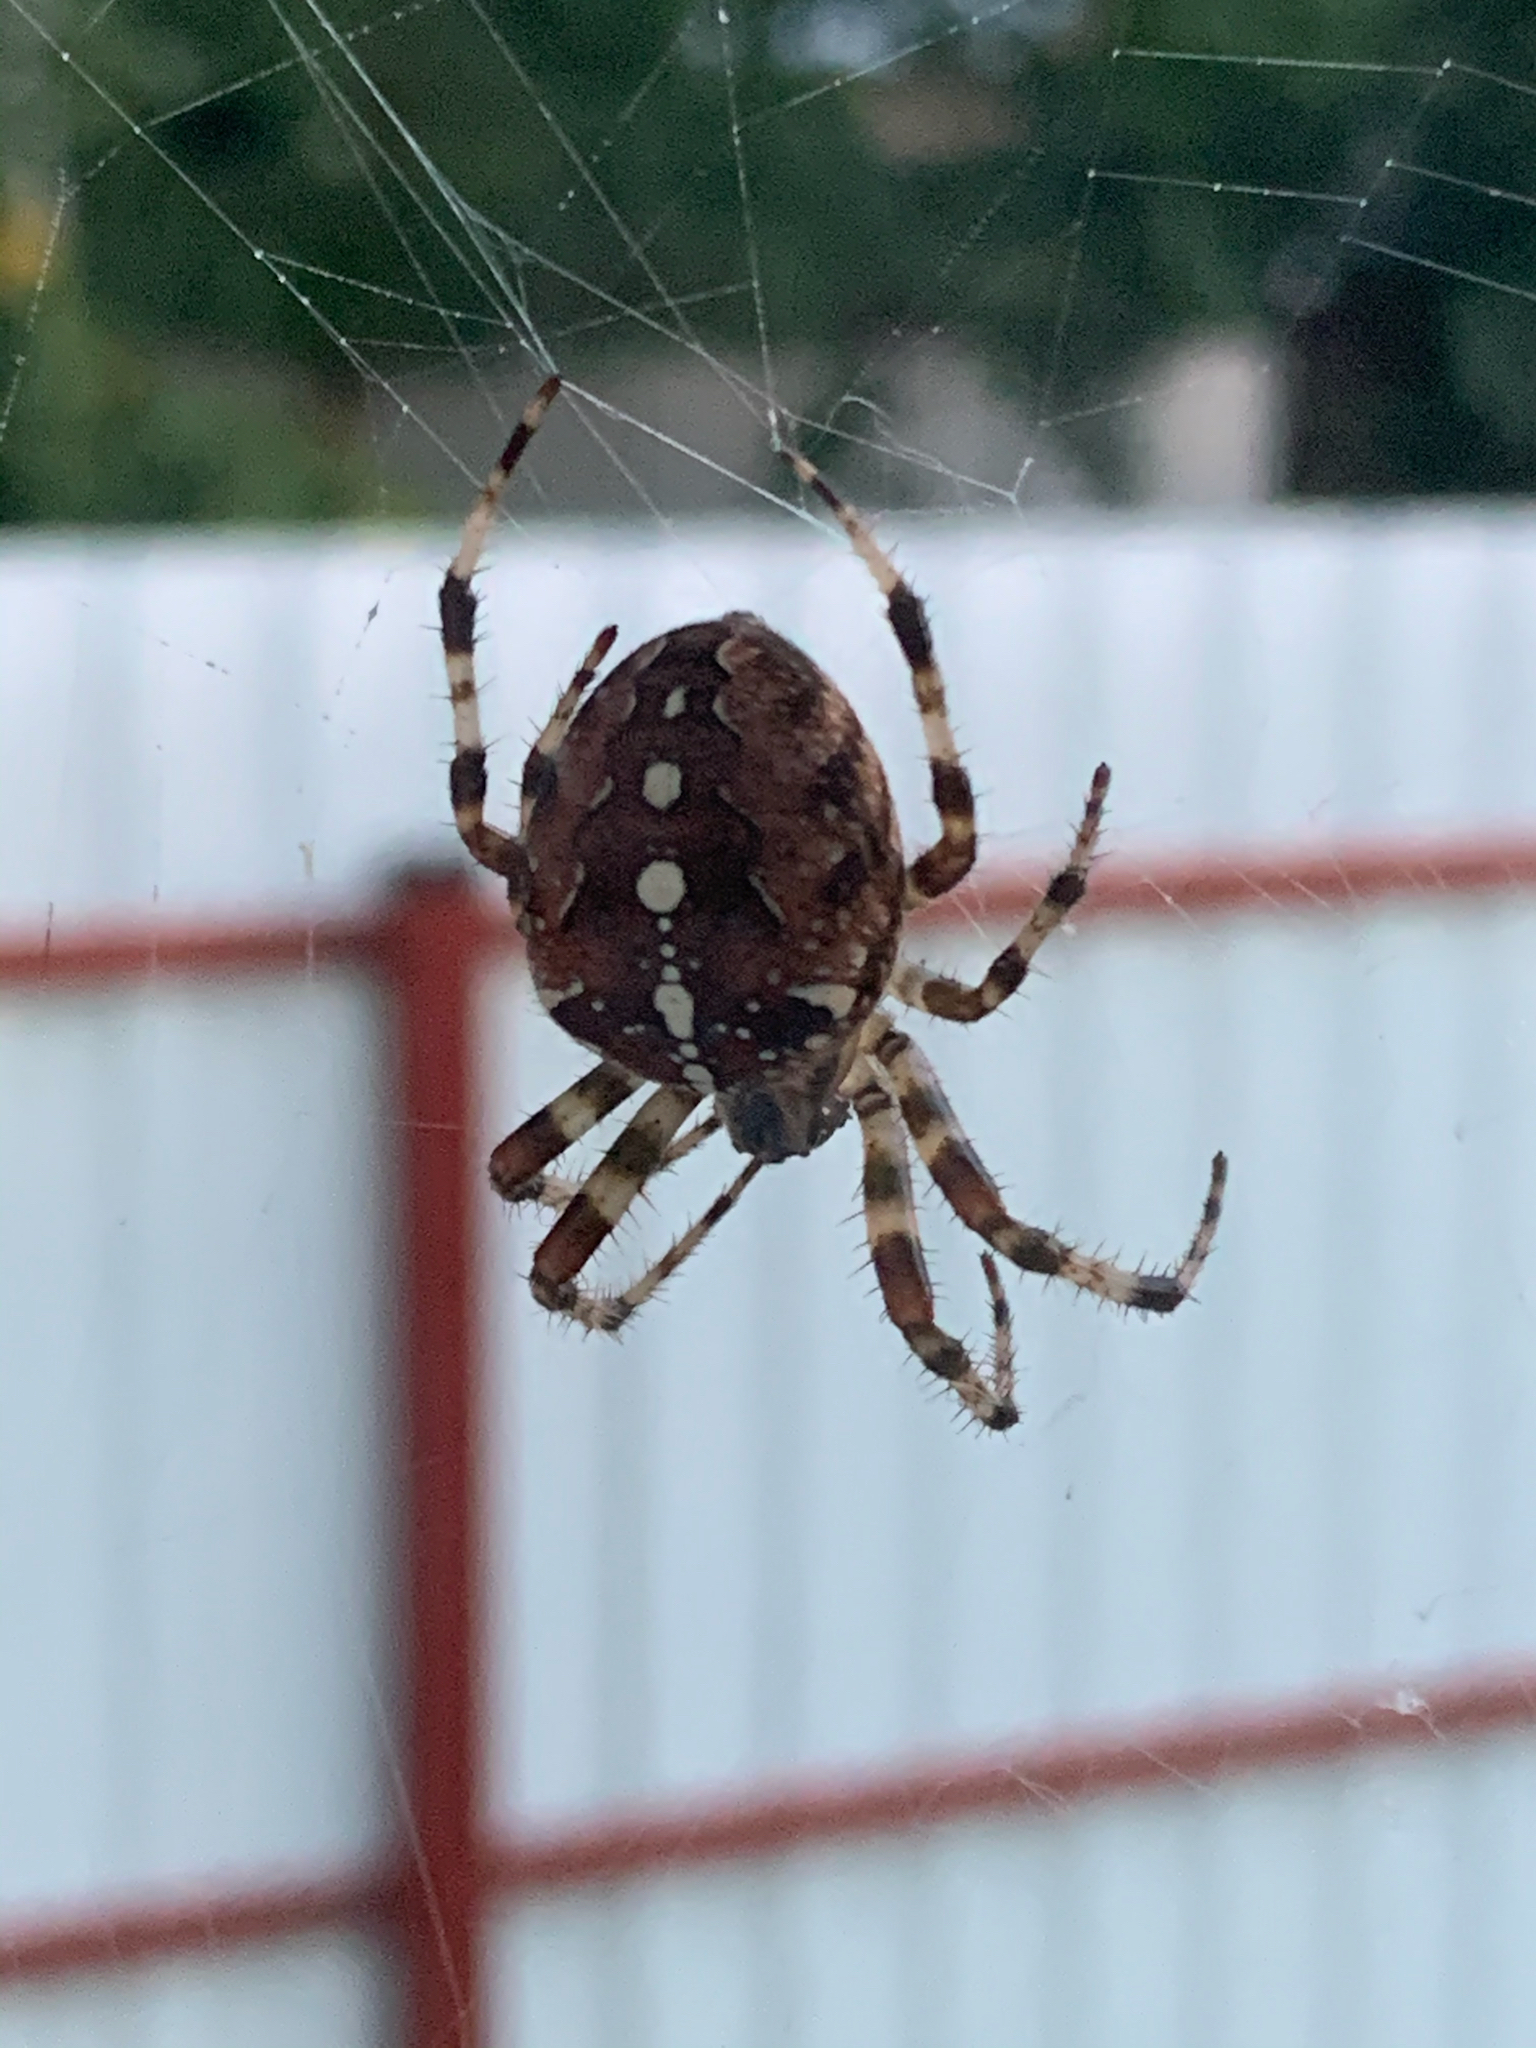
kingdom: Animalia
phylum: Arthropoda
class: Arachnida
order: Araneae
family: Araneidae
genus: Araneus
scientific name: Araneus diadematus
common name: Cross orbweaver
